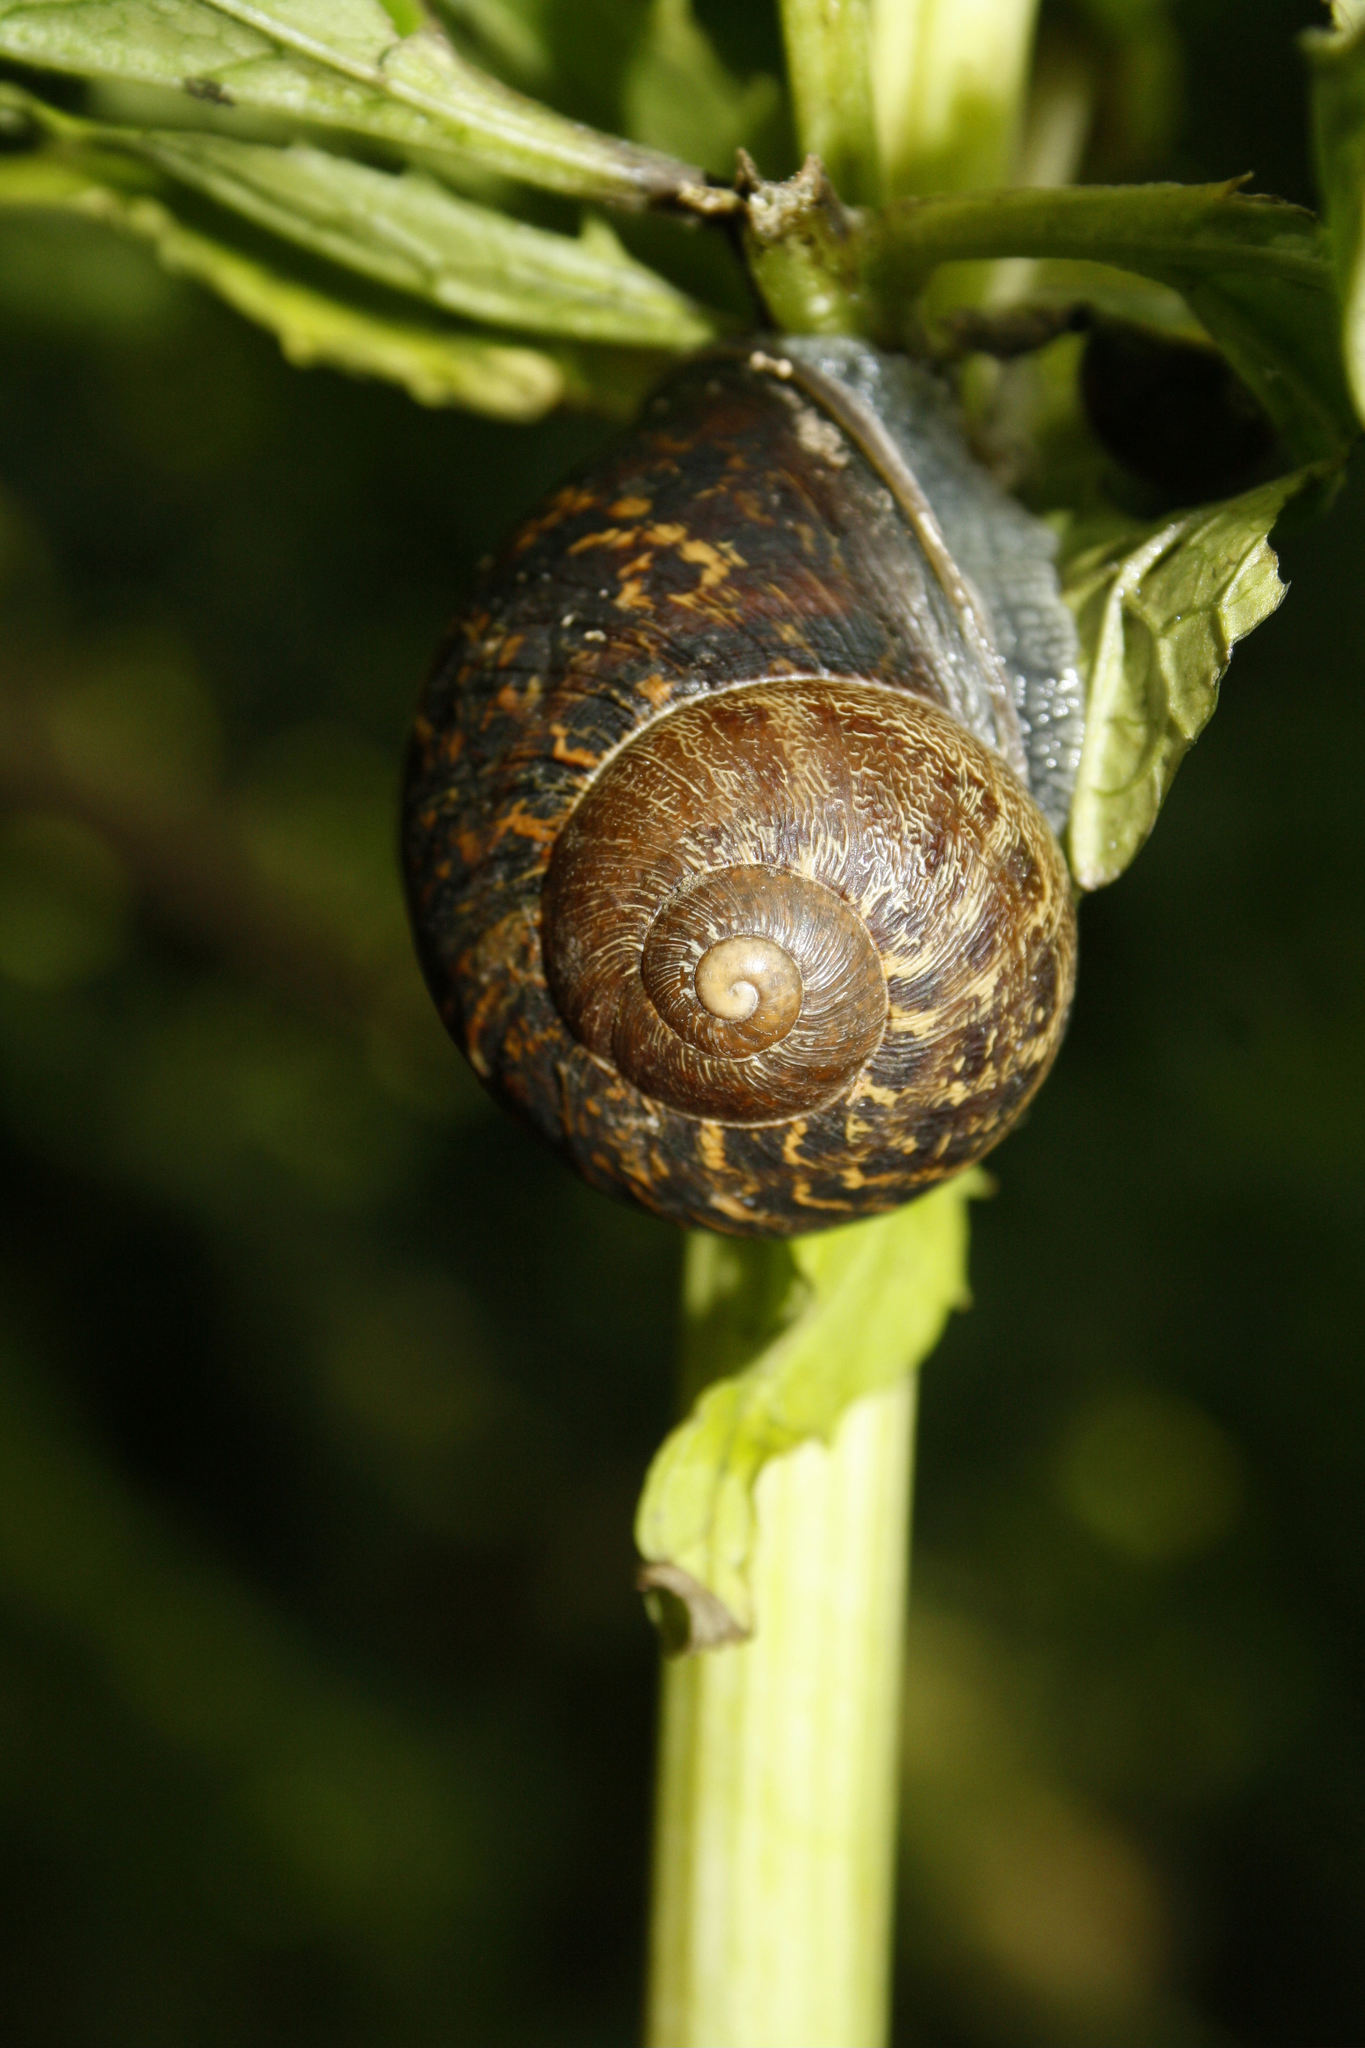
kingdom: Animalia
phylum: Mollusca
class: Gastropoda
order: Stylommatophora
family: Helicidae
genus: Cornu
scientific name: Cornu aspersum
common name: Brown garden snail
